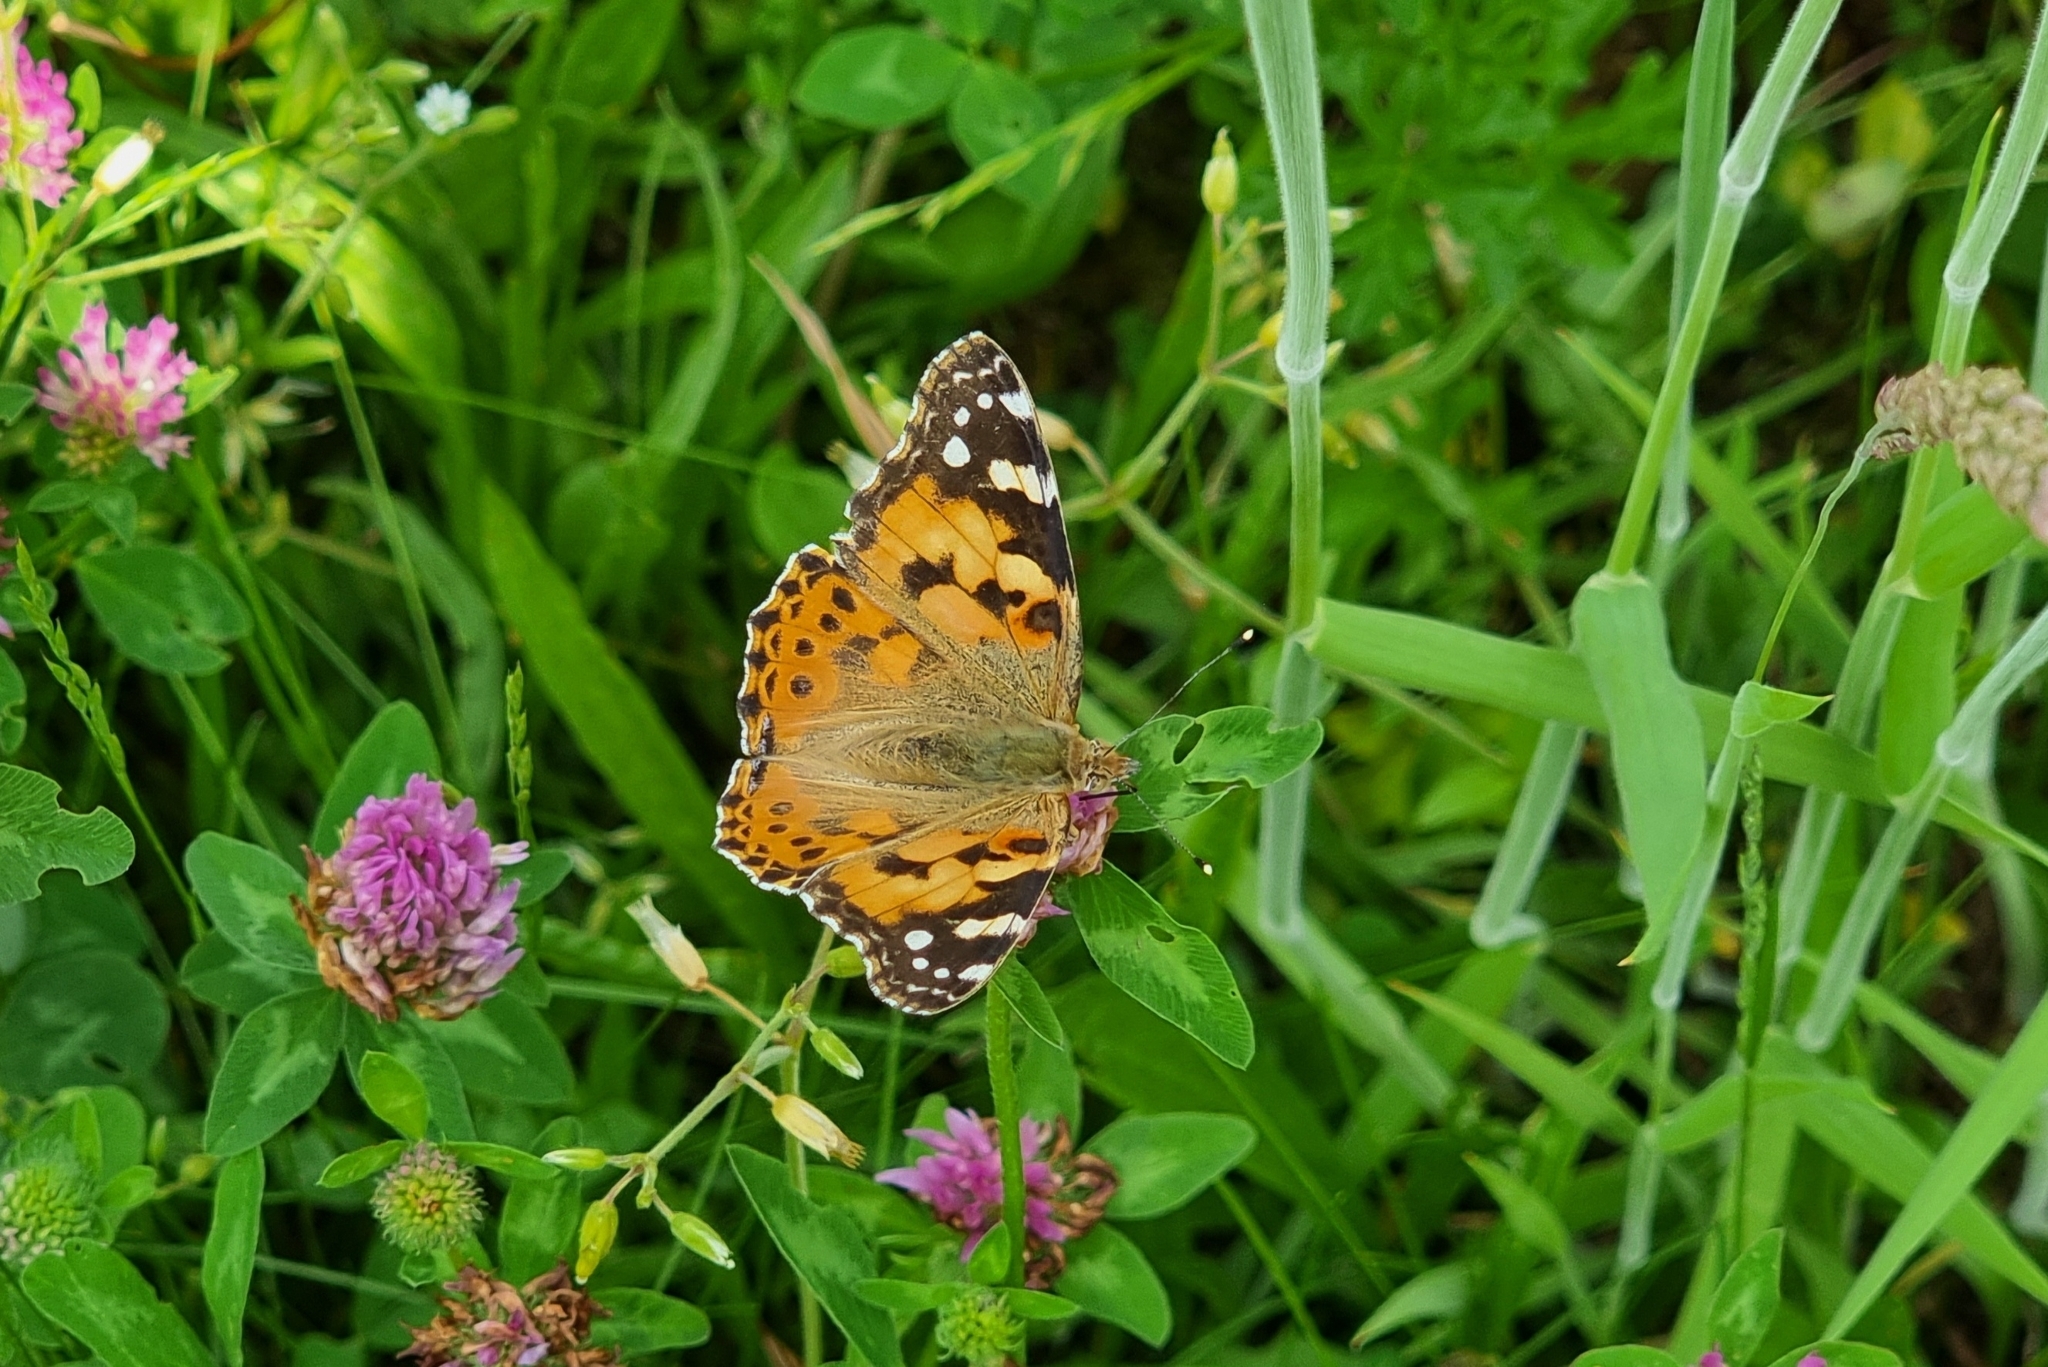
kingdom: Animalia
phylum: Arthropoda
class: Insecta
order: Lepidoptera
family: Nymphalidae
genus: Vanessa
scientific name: Vanessa cardui
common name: Painted lady
